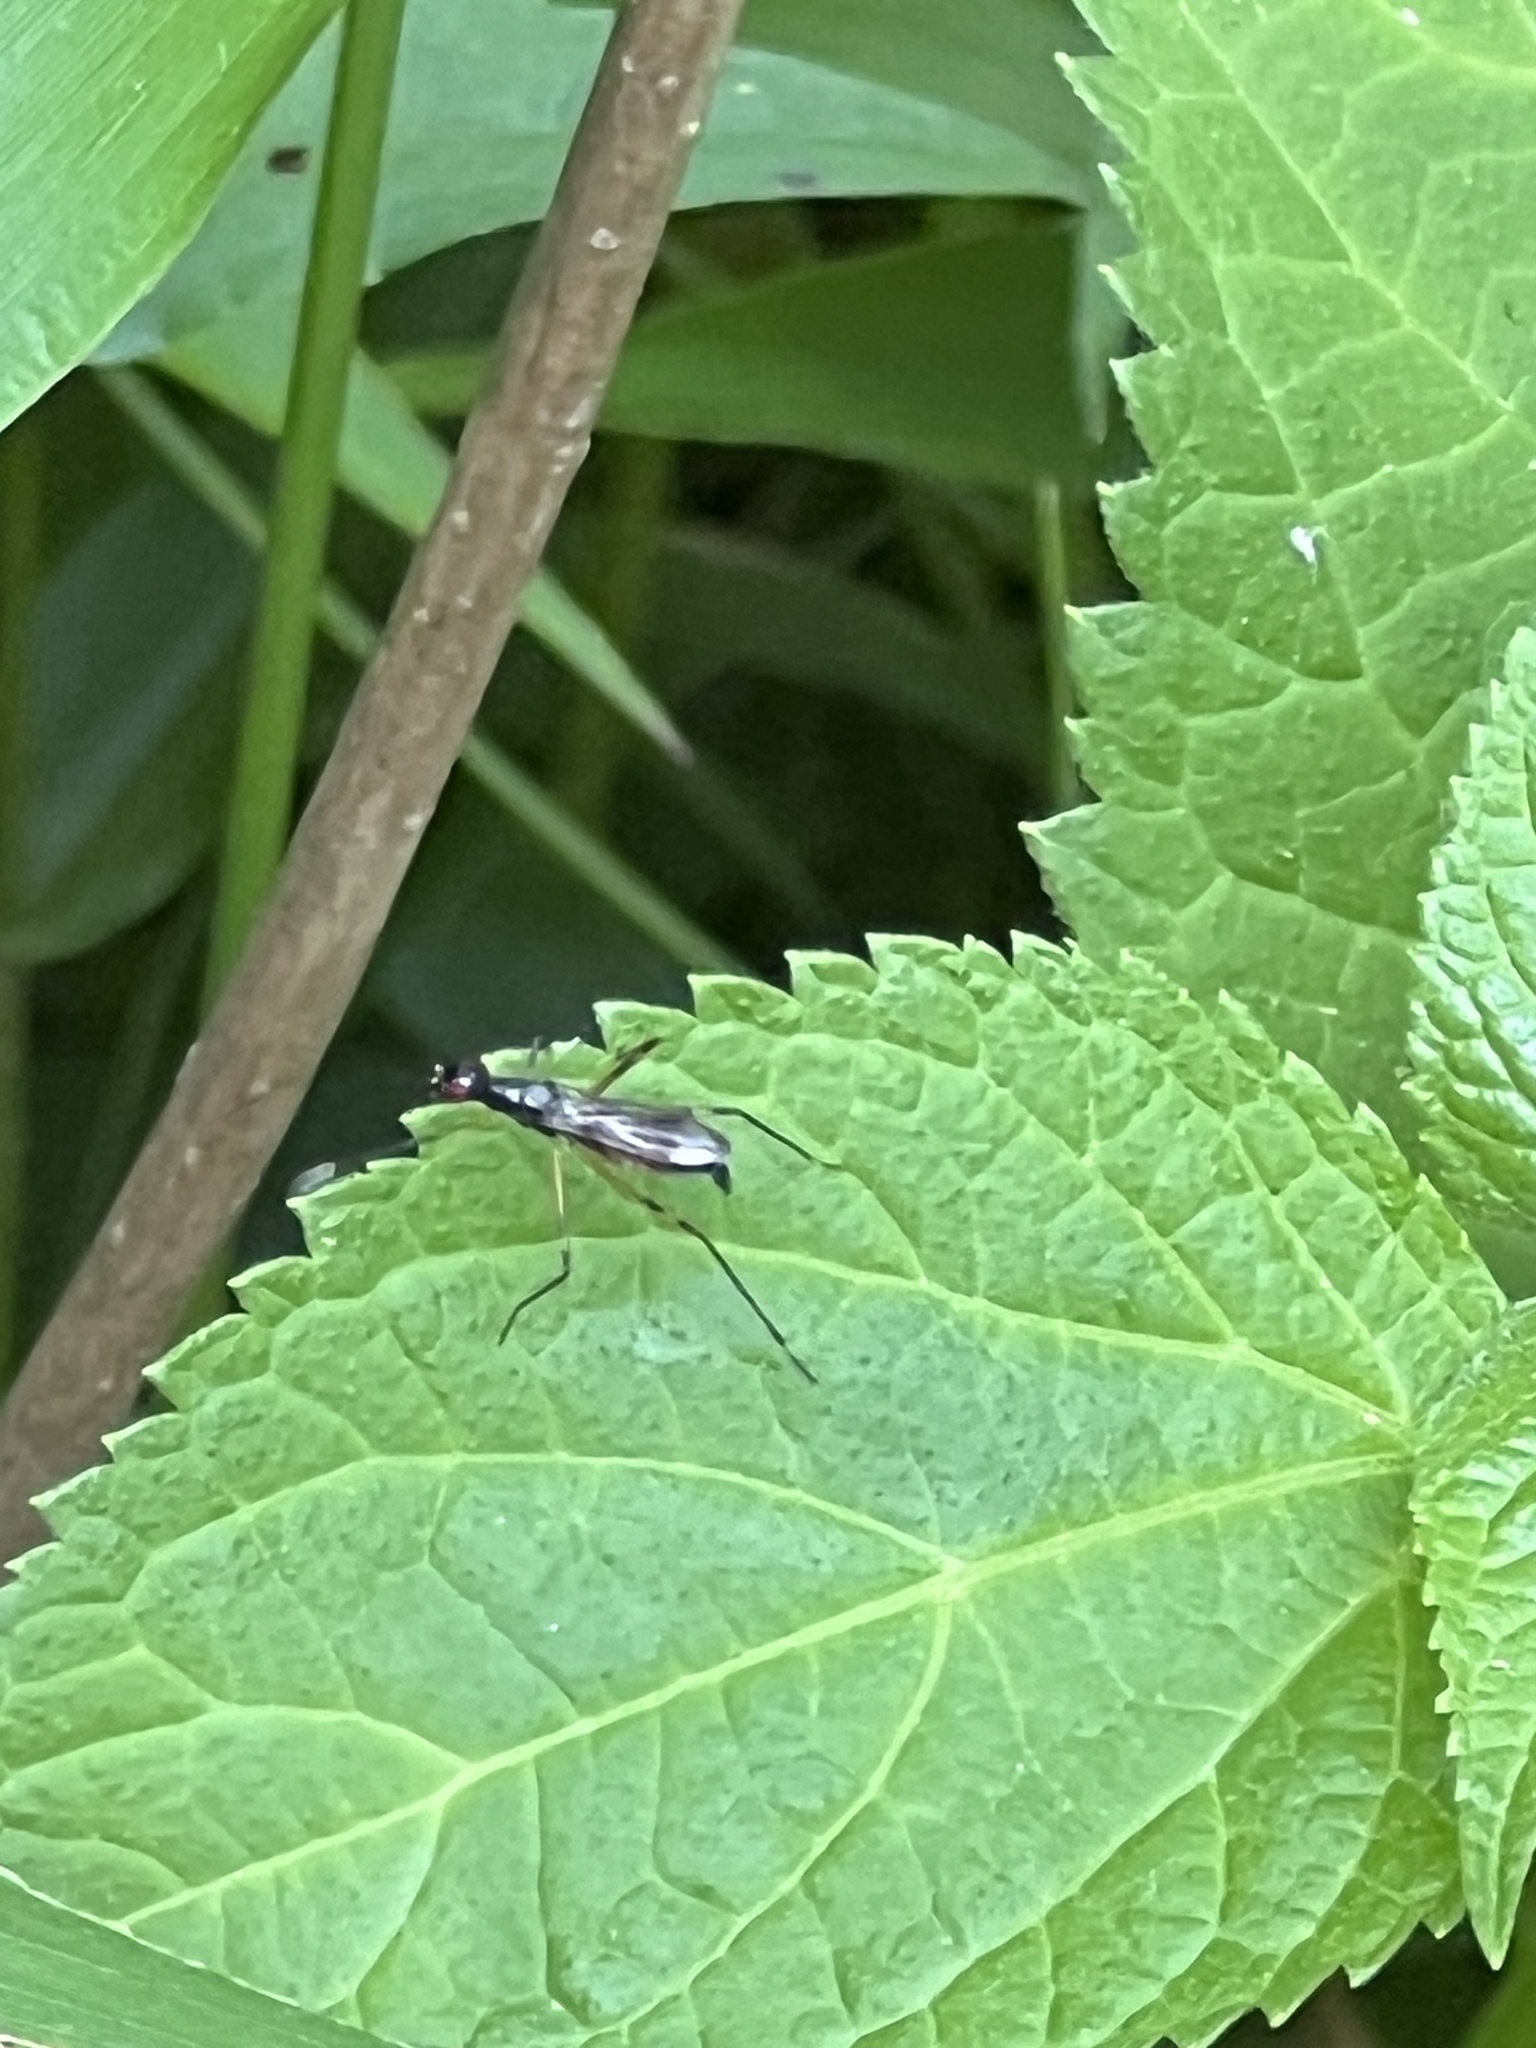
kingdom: Animalia
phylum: Arthropoda
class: Insecta
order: Diptera
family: Micropezidae
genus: Rainieria
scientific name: Rainieria antennaepes
